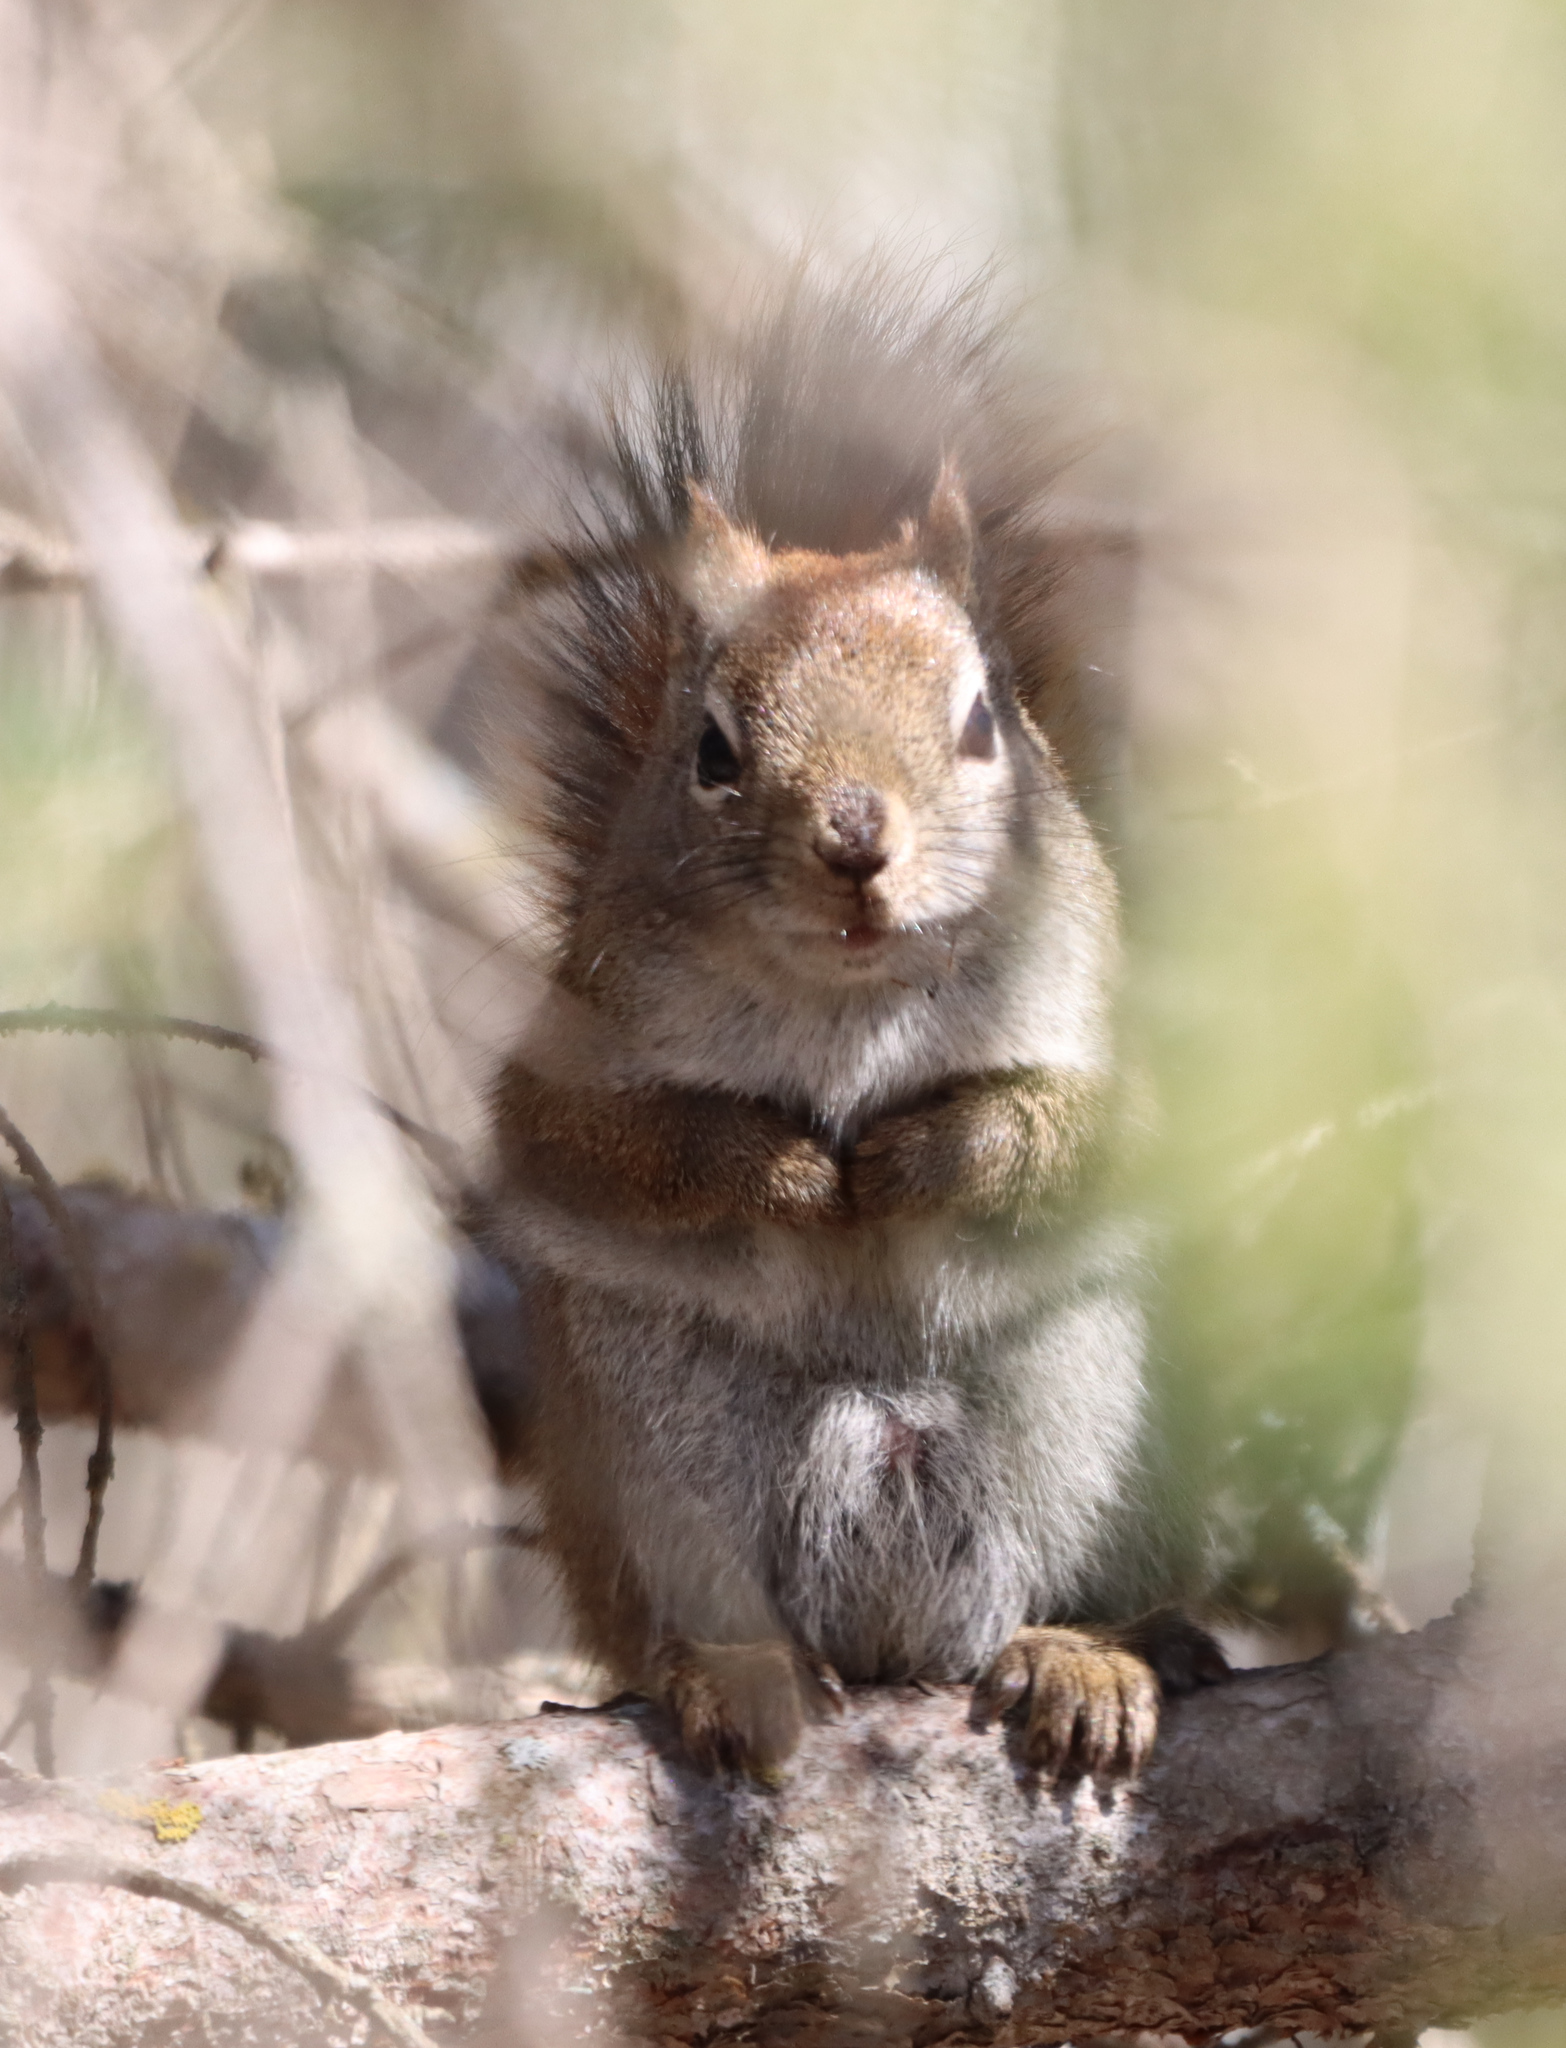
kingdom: Animalia
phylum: Chordata
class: Mammalia
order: Rodentia
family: Sciuridae
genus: Tamiasciurus
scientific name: Tamiasciurus hudsonicus
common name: Red squirrel
